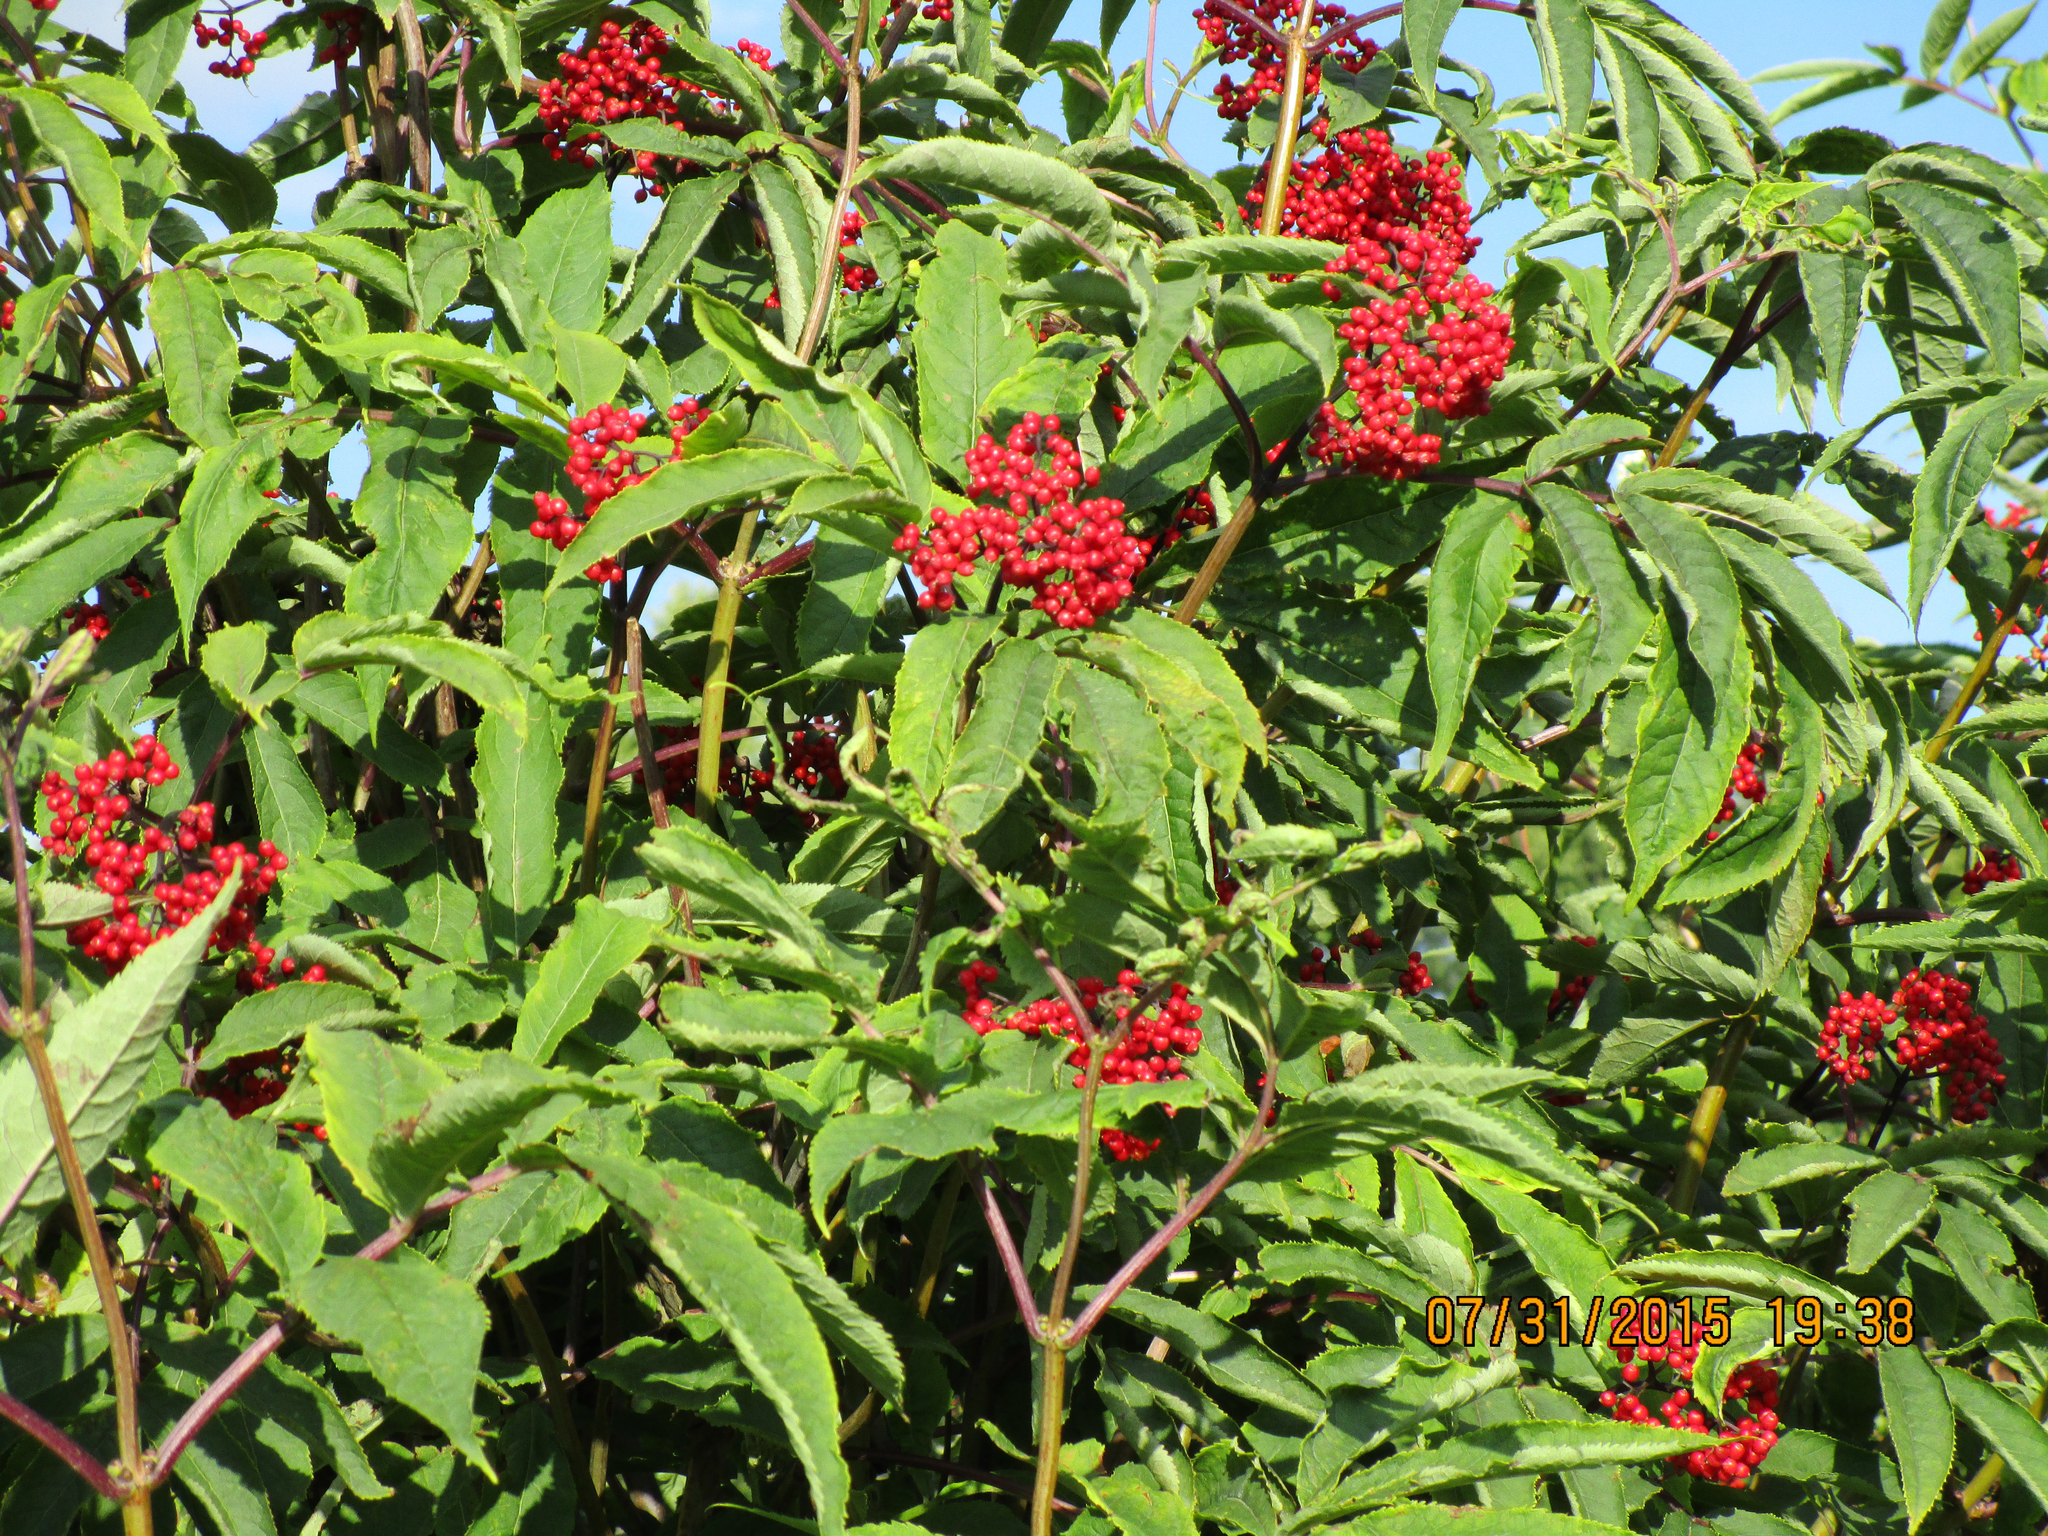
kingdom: Plantae
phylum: Tracheophyta
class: Magnoliopsida
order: Dipsacales
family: Viburnaceae
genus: Sambucus
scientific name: Sambucus racemosa
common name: Red-berried elder
